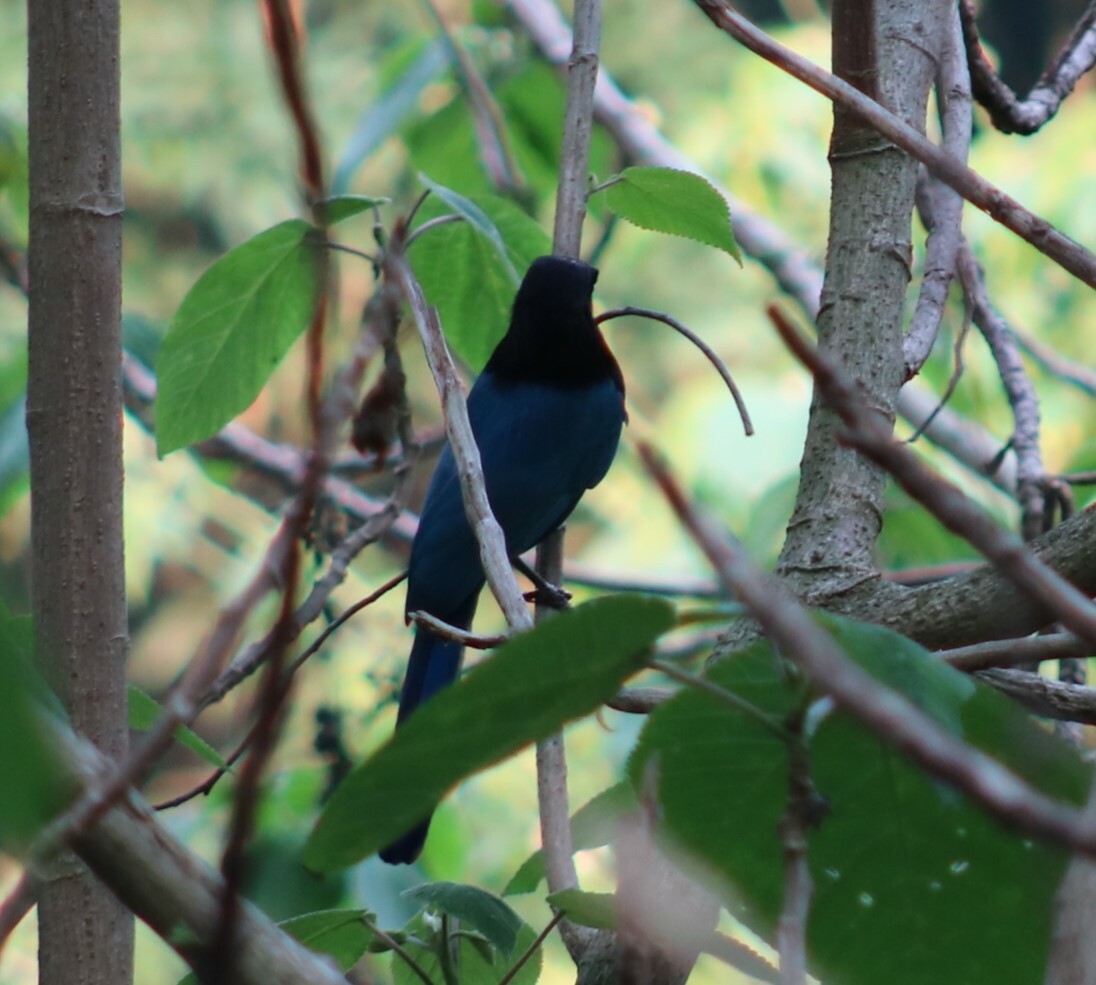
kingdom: Animalia
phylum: Chordata
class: Aves
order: Passeriformes
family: Corvidae
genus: Cyanocorax
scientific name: Cyanocorax melanocyaneus
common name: Bushy-crested jay
